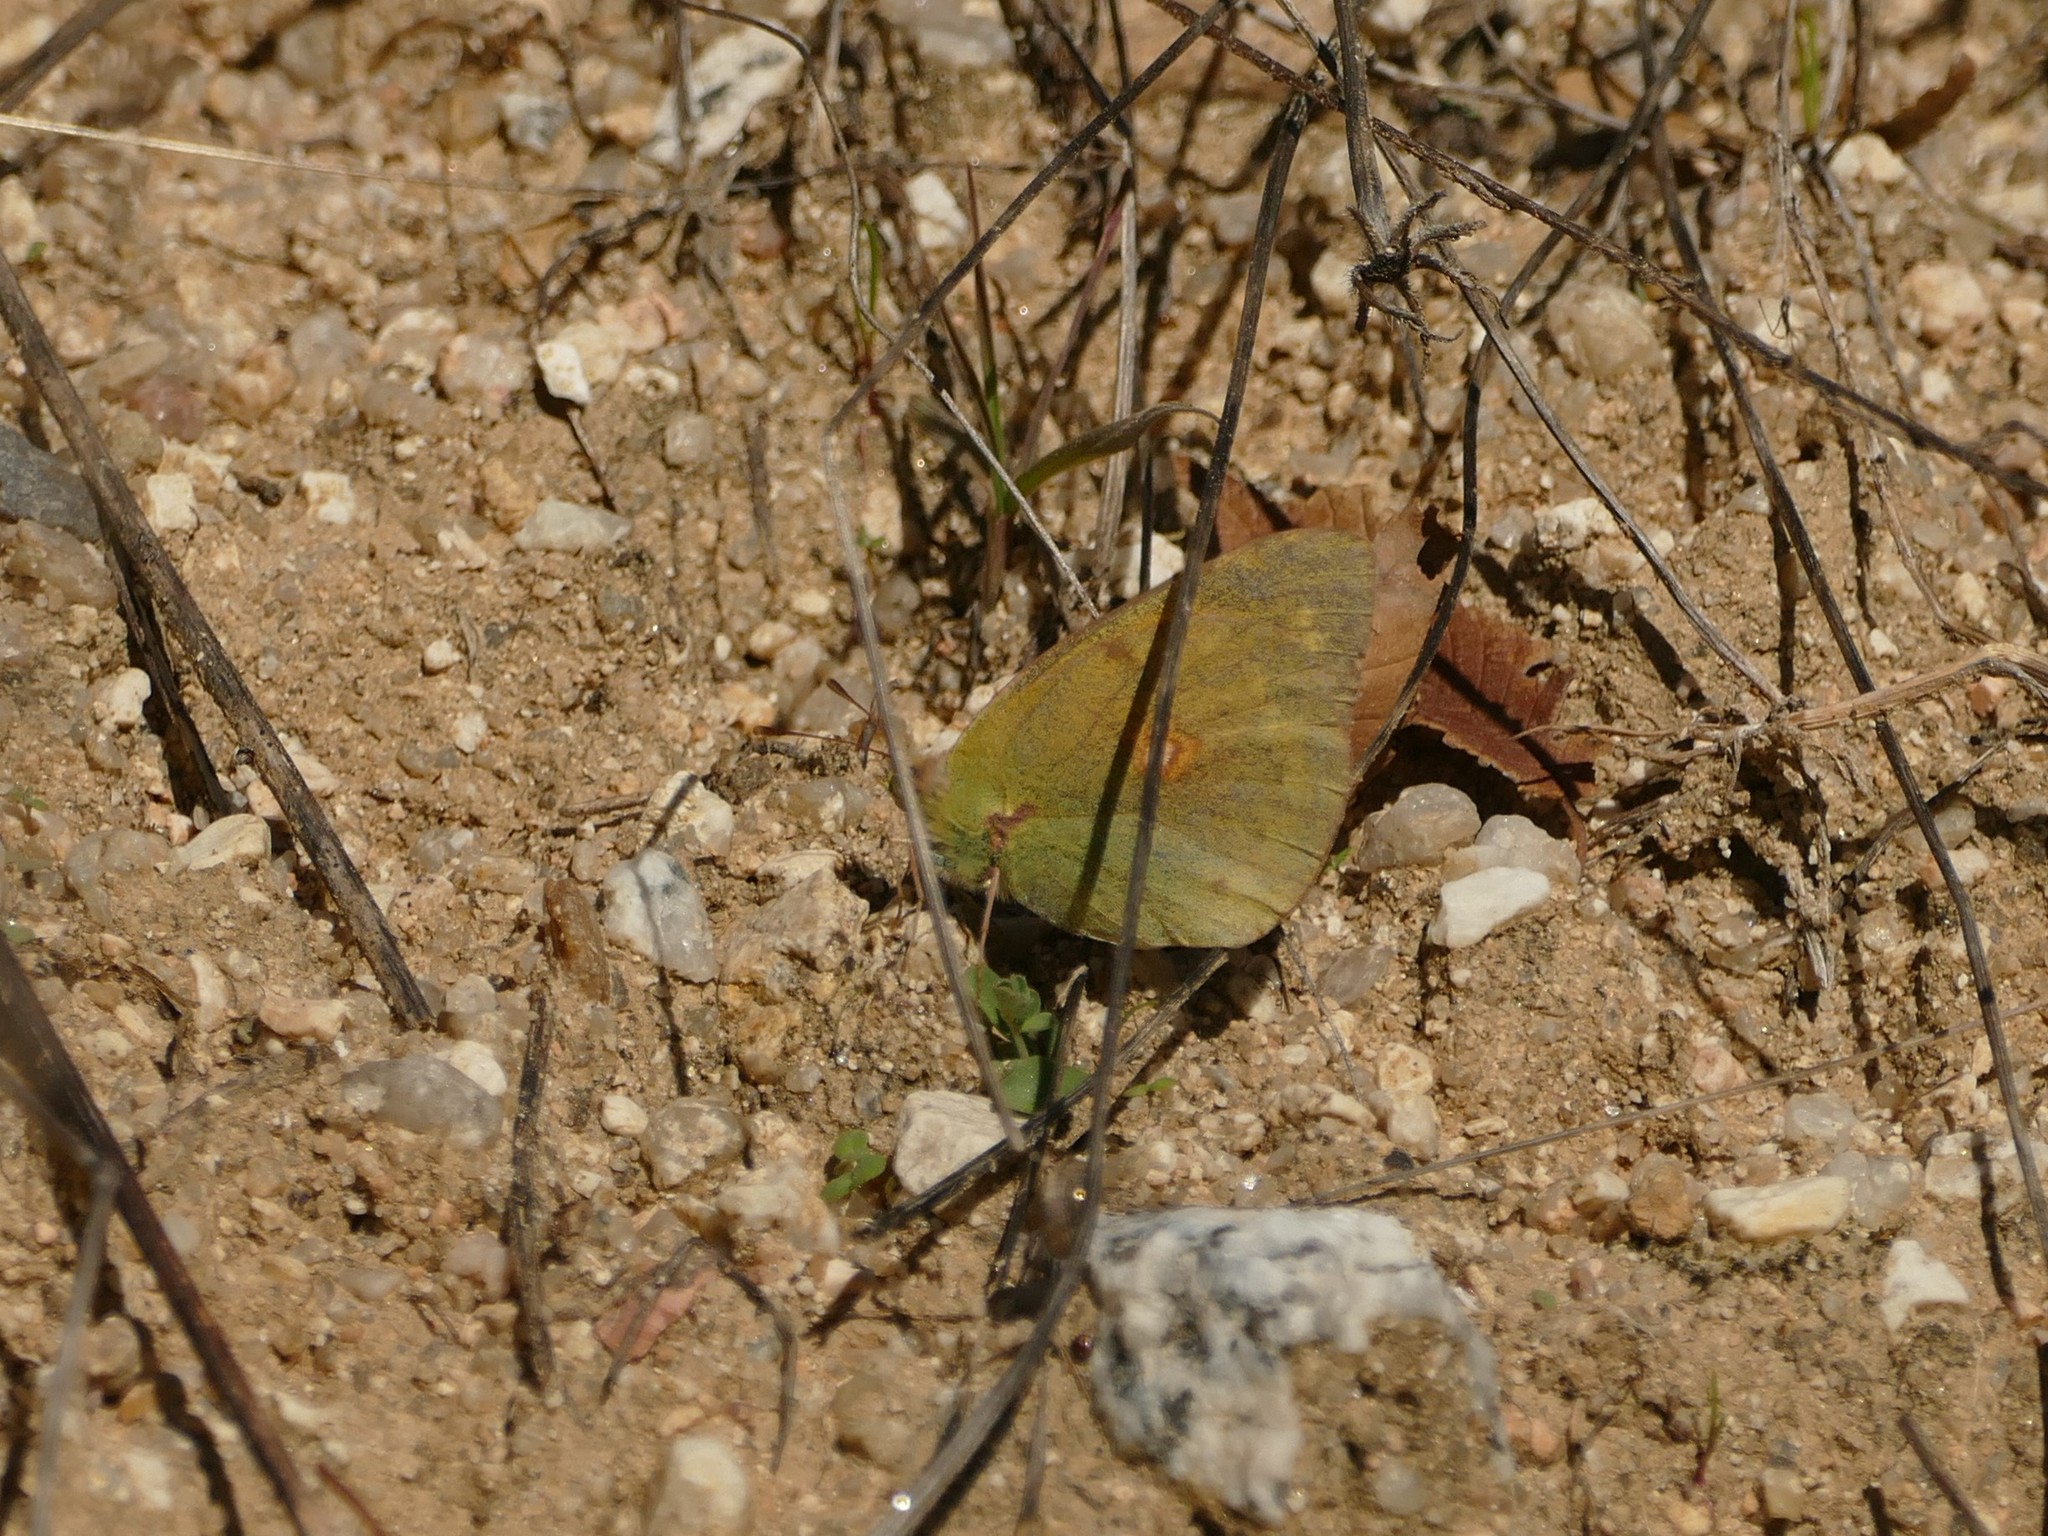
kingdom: Animalia
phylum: Arthropoda
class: Insecta
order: Lepidoptera
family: Pieridae
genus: Colias
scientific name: Colias croceus
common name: Clouded yellow
